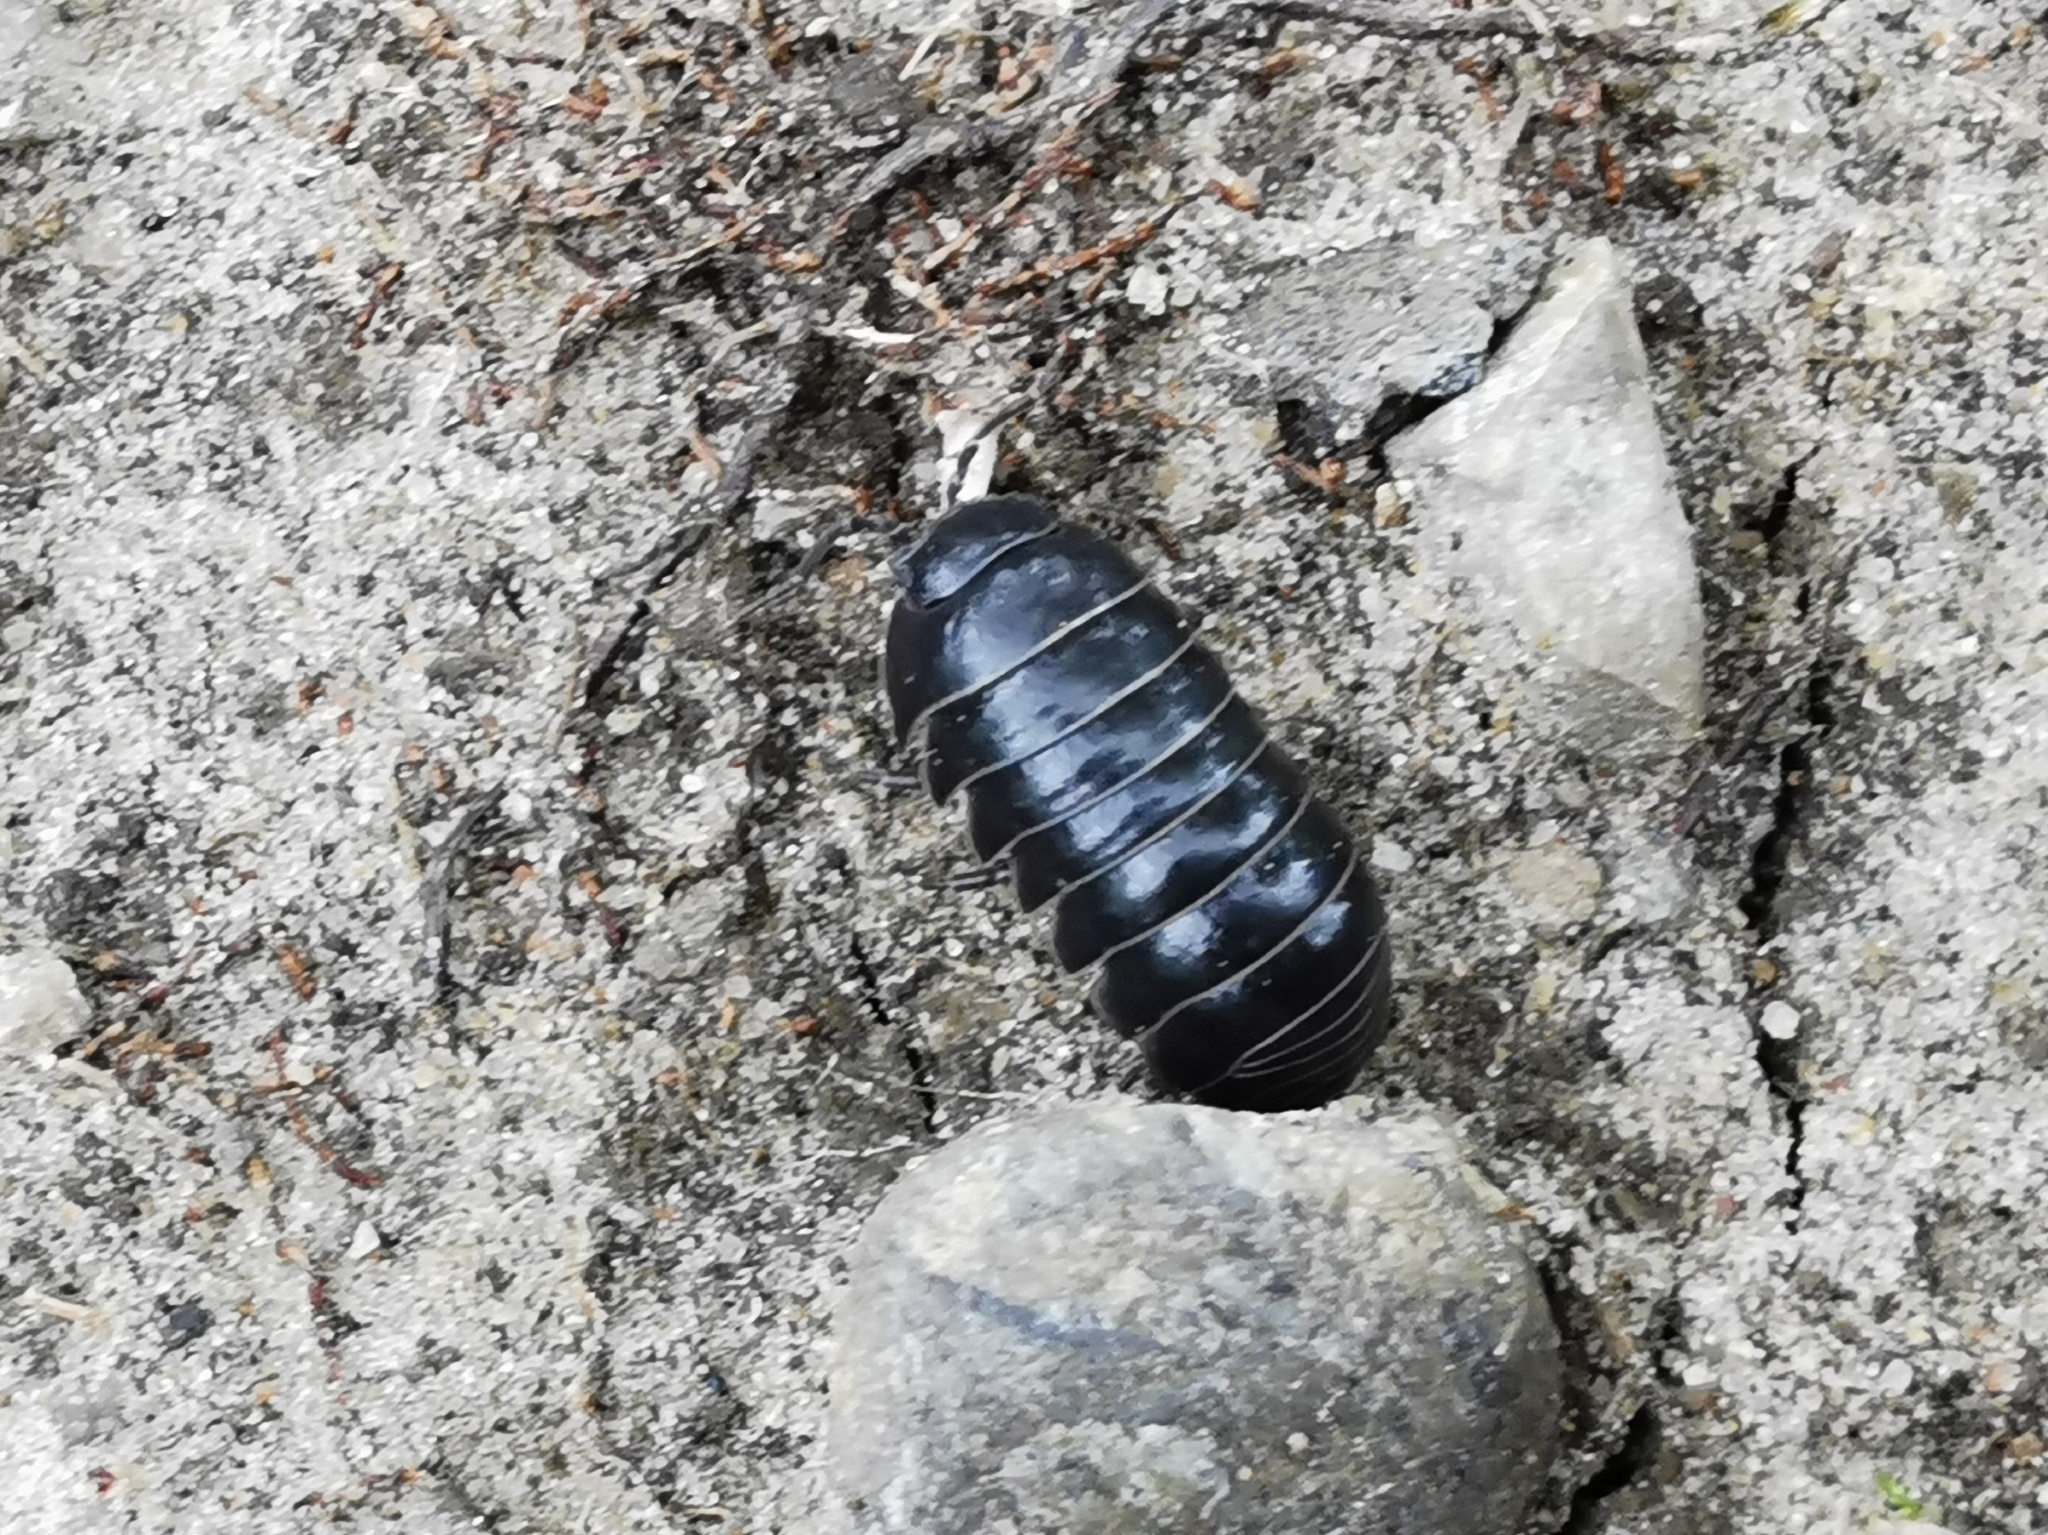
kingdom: Animalia
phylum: Arthropoda
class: Malacostraca
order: Isopoda
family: Armadillidiidae
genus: Armadillidium
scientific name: Armadillidium vulgare
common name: Common pill woodlouse
